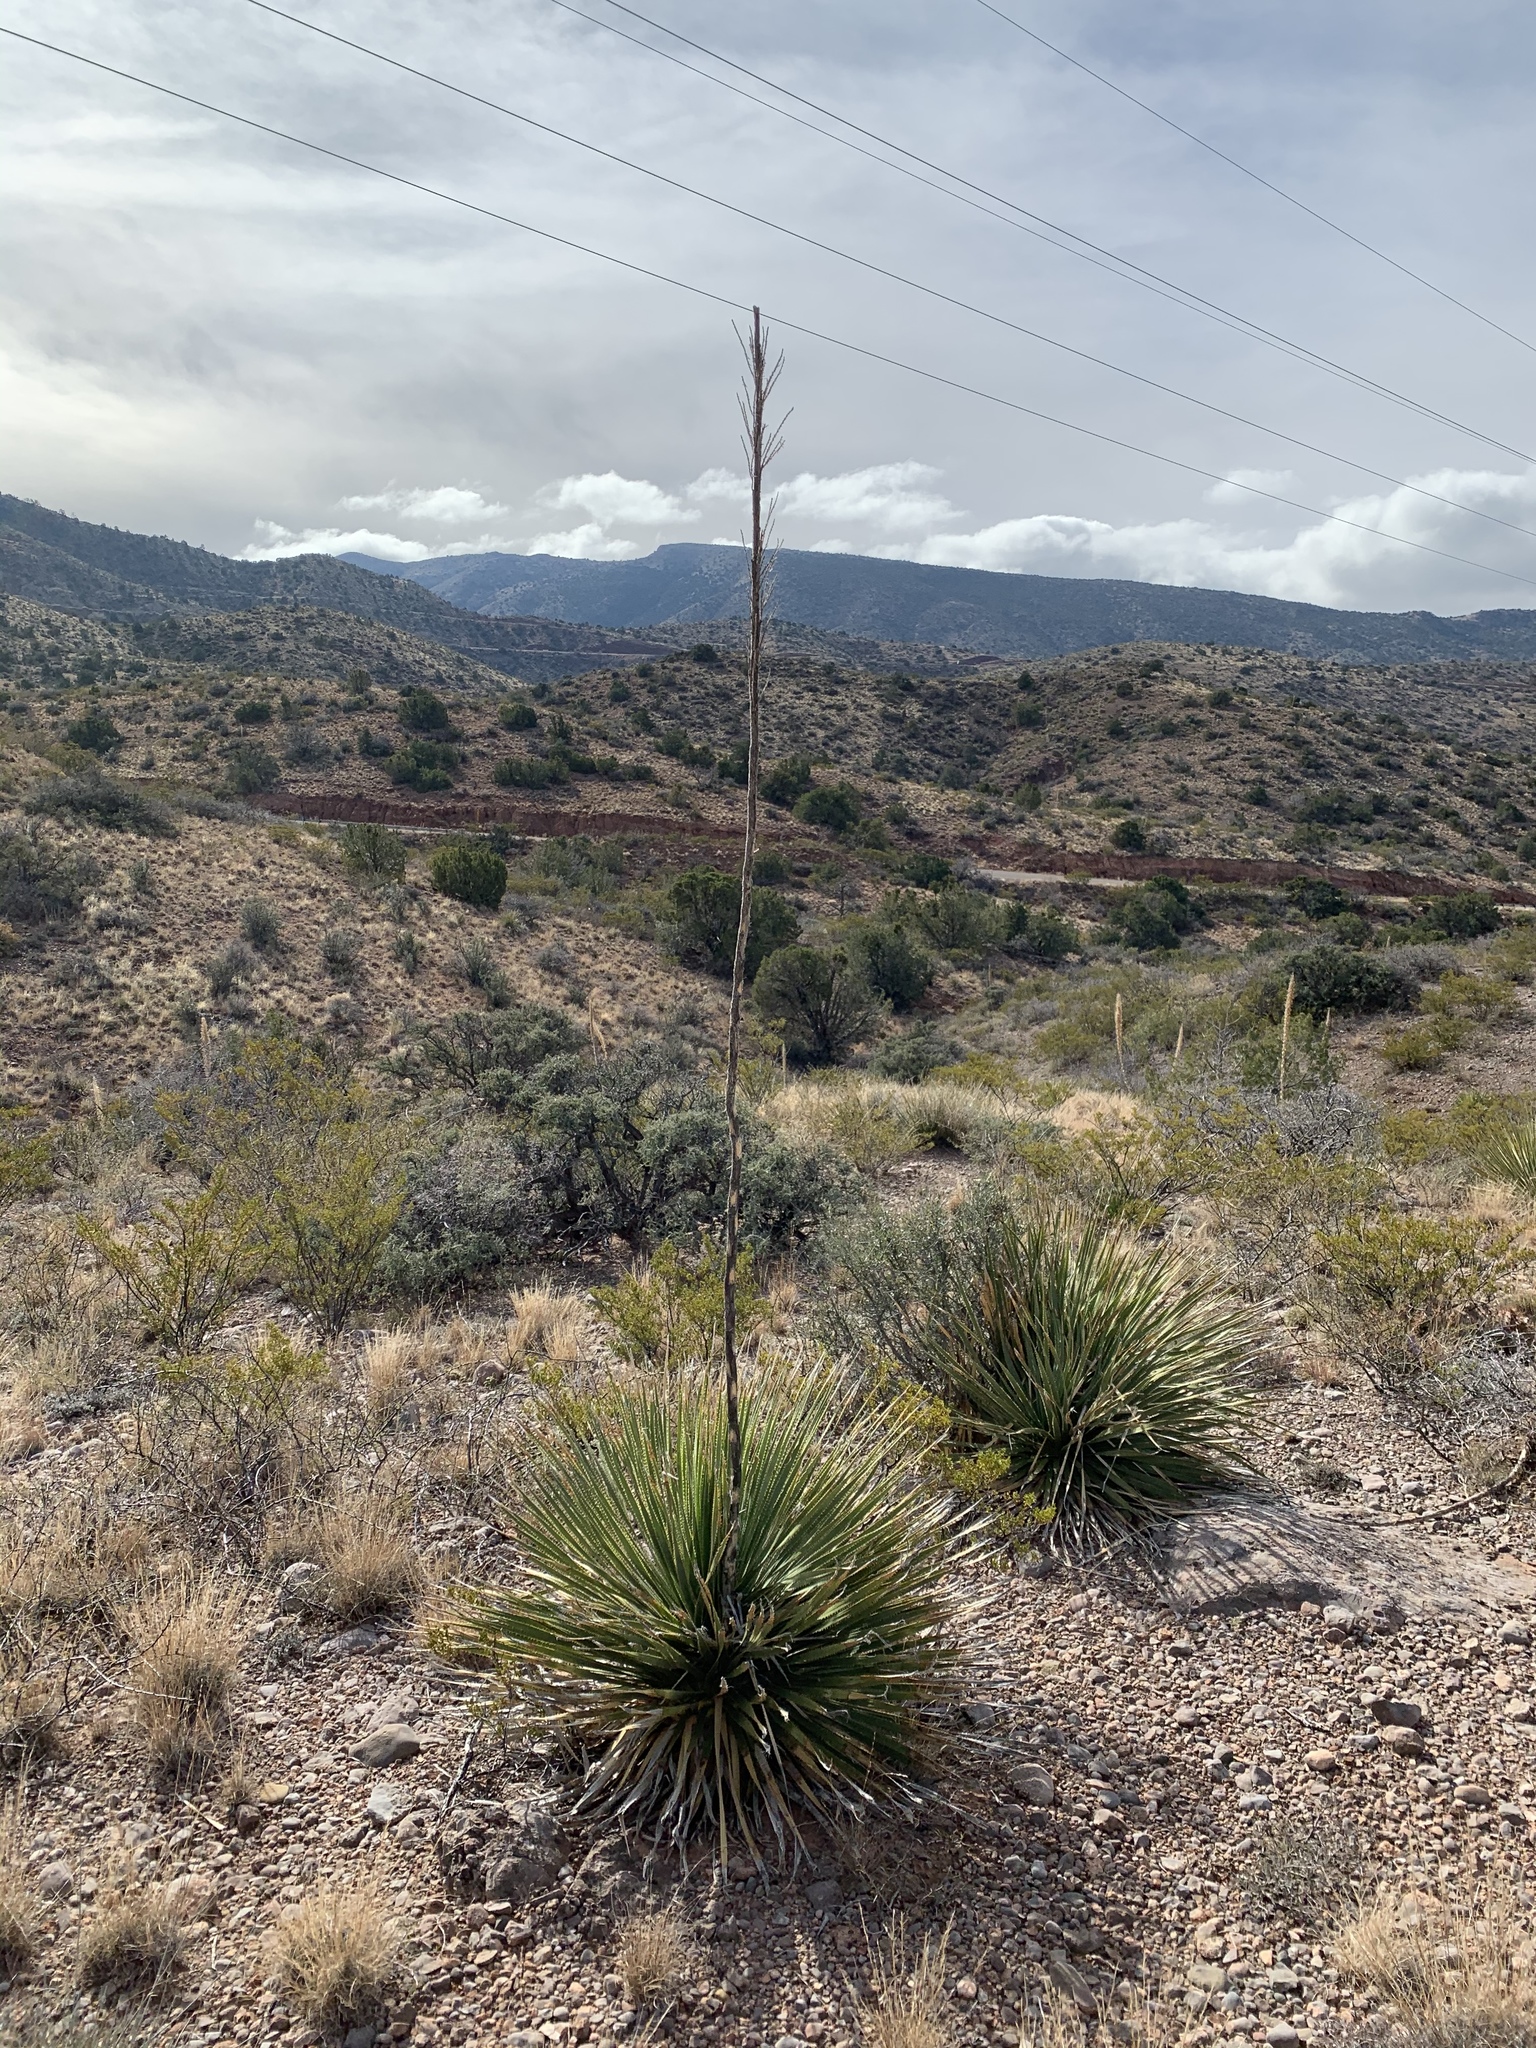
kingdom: Plantae
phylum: Tracheophyta
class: Liliopsida
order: Asparagales
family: Asparagaceae
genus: Dasylirion
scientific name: Dasylirion wheeleri
